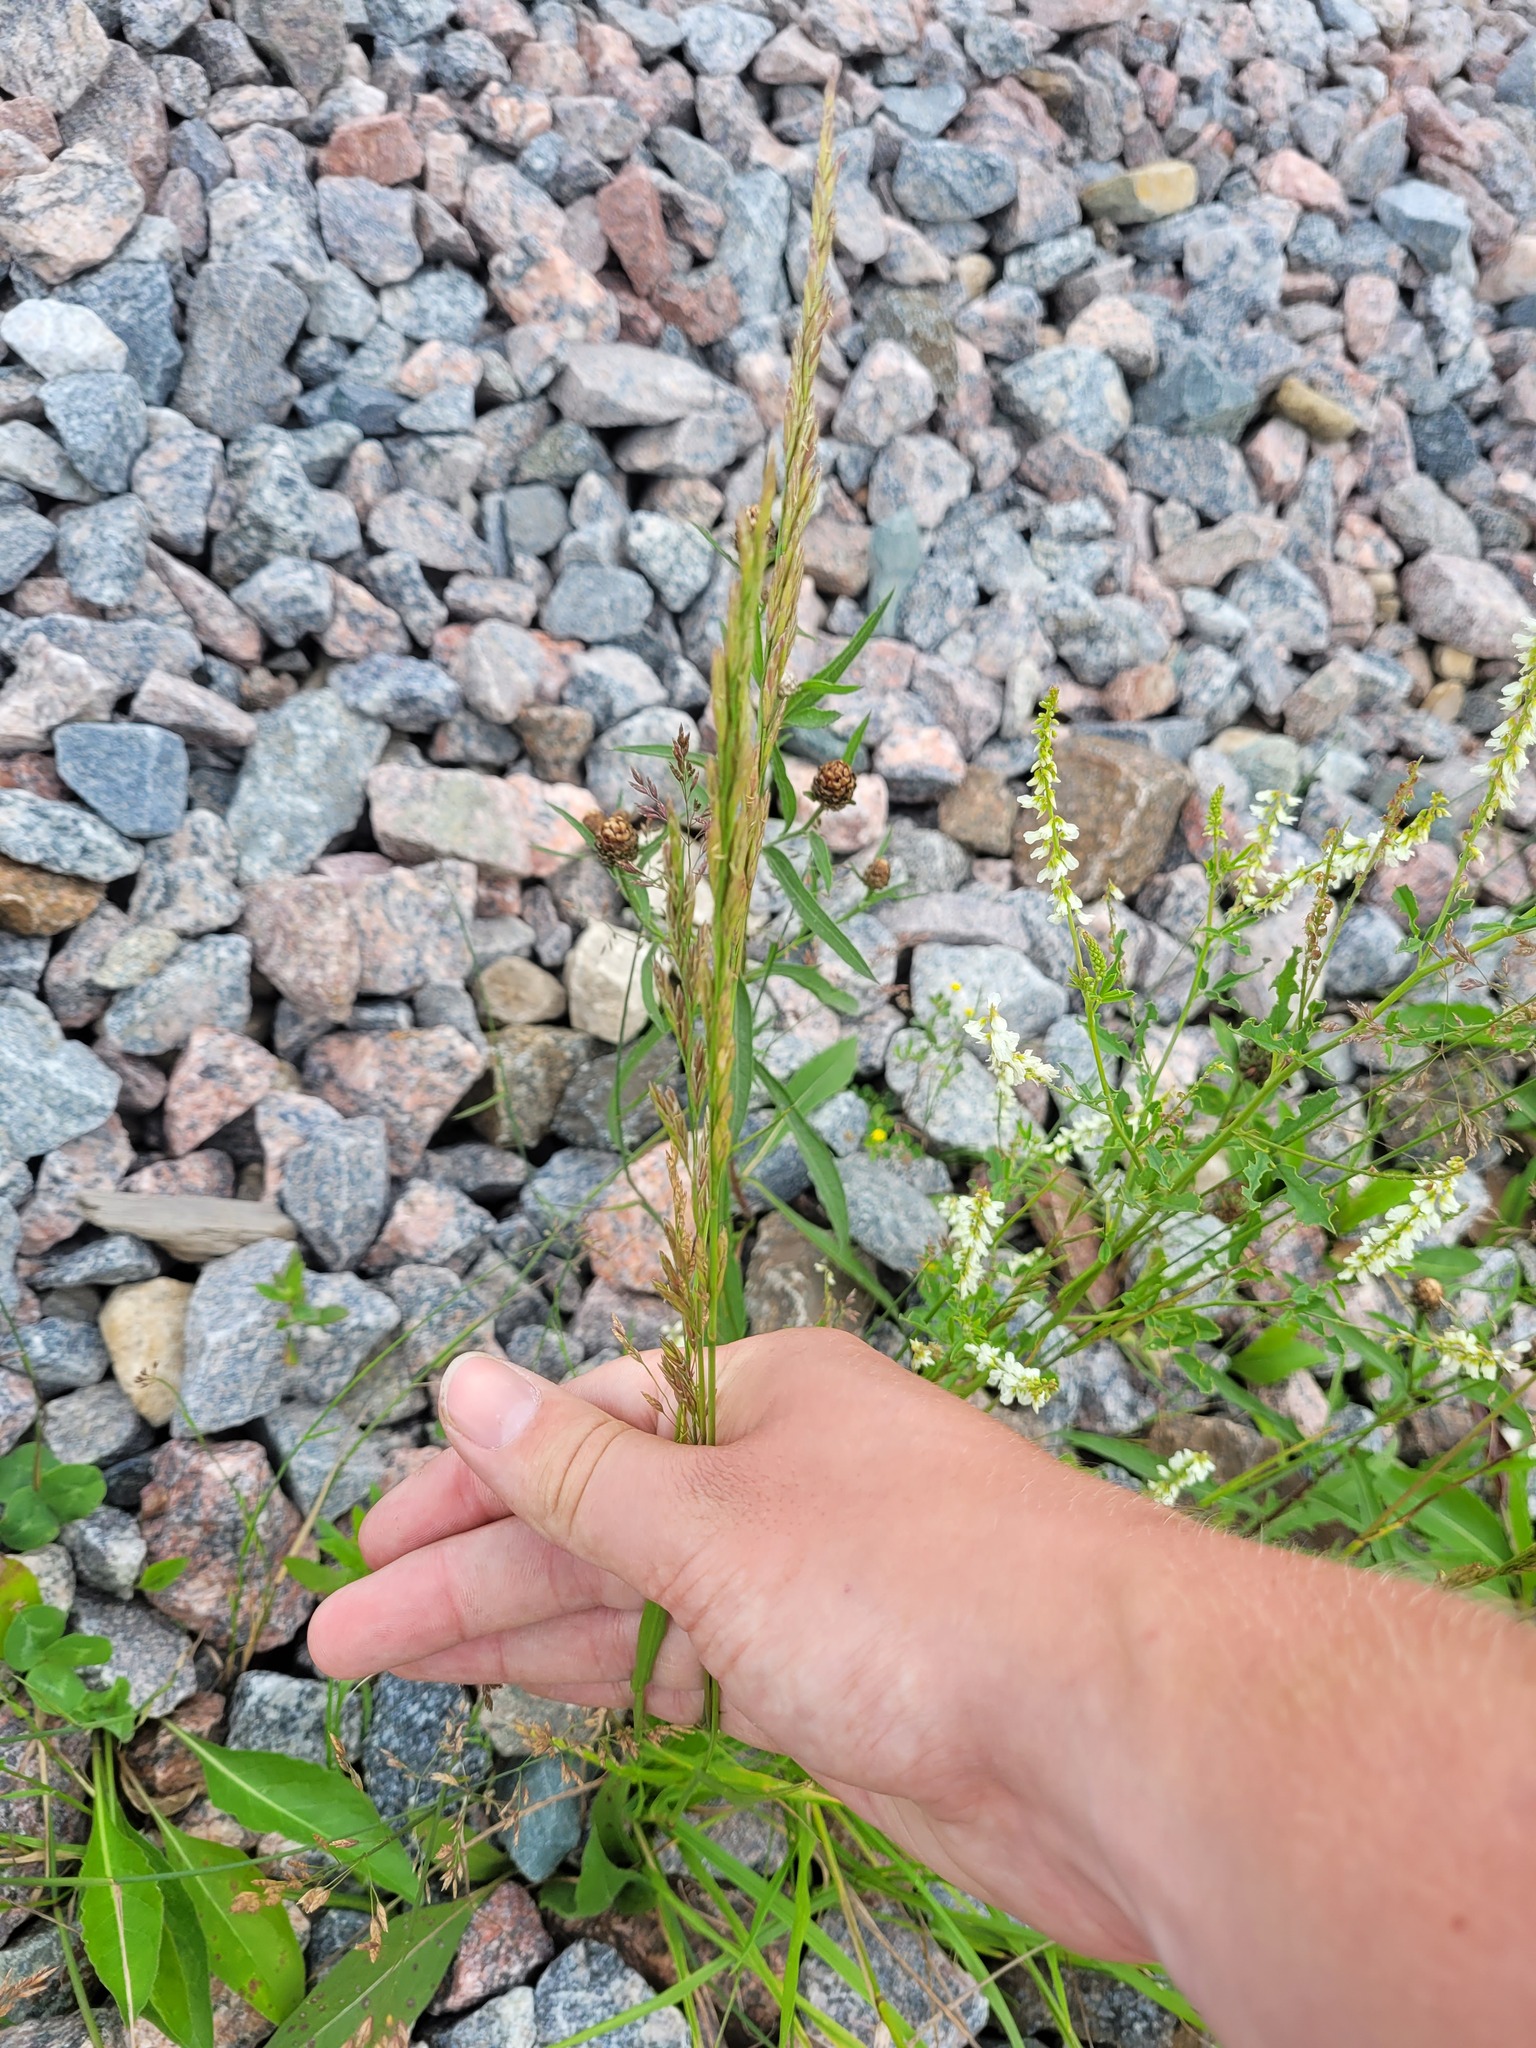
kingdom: Plantae
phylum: Tracheophyta
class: Liliopsida
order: Poales
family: Poaceae
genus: Lolium
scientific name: Lolium arundinaceum
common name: Reed fescue
